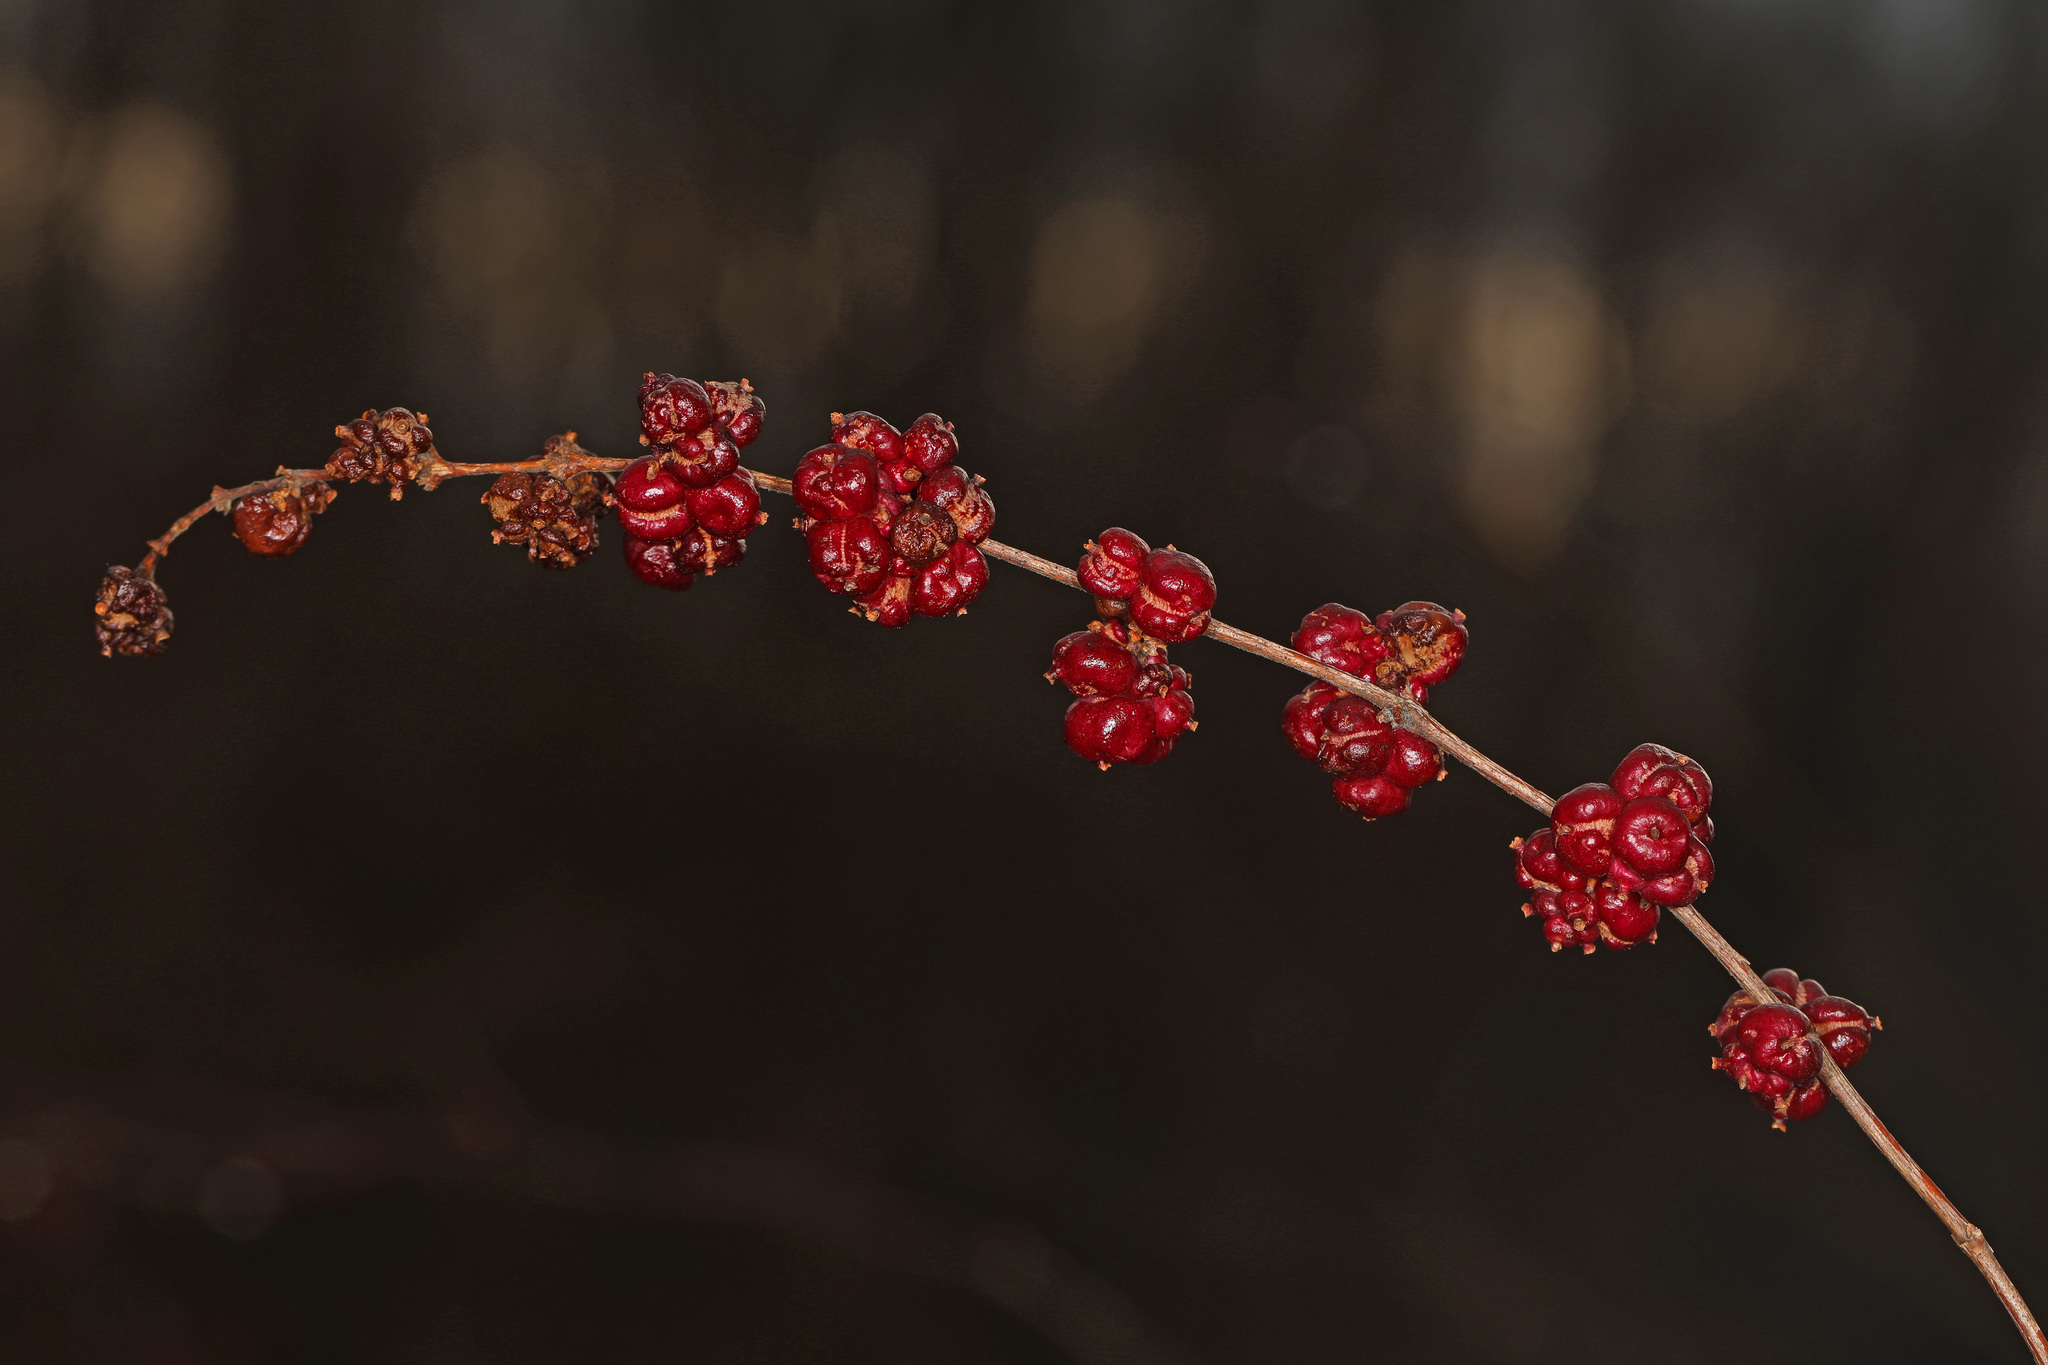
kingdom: Plantae
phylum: Tracheophyta
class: Magnoliopsida
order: Dipsacales
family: Caprifoliaceae
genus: Symphoricarpos
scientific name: Symphoricarpos orbiculatus
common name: Coralberry
